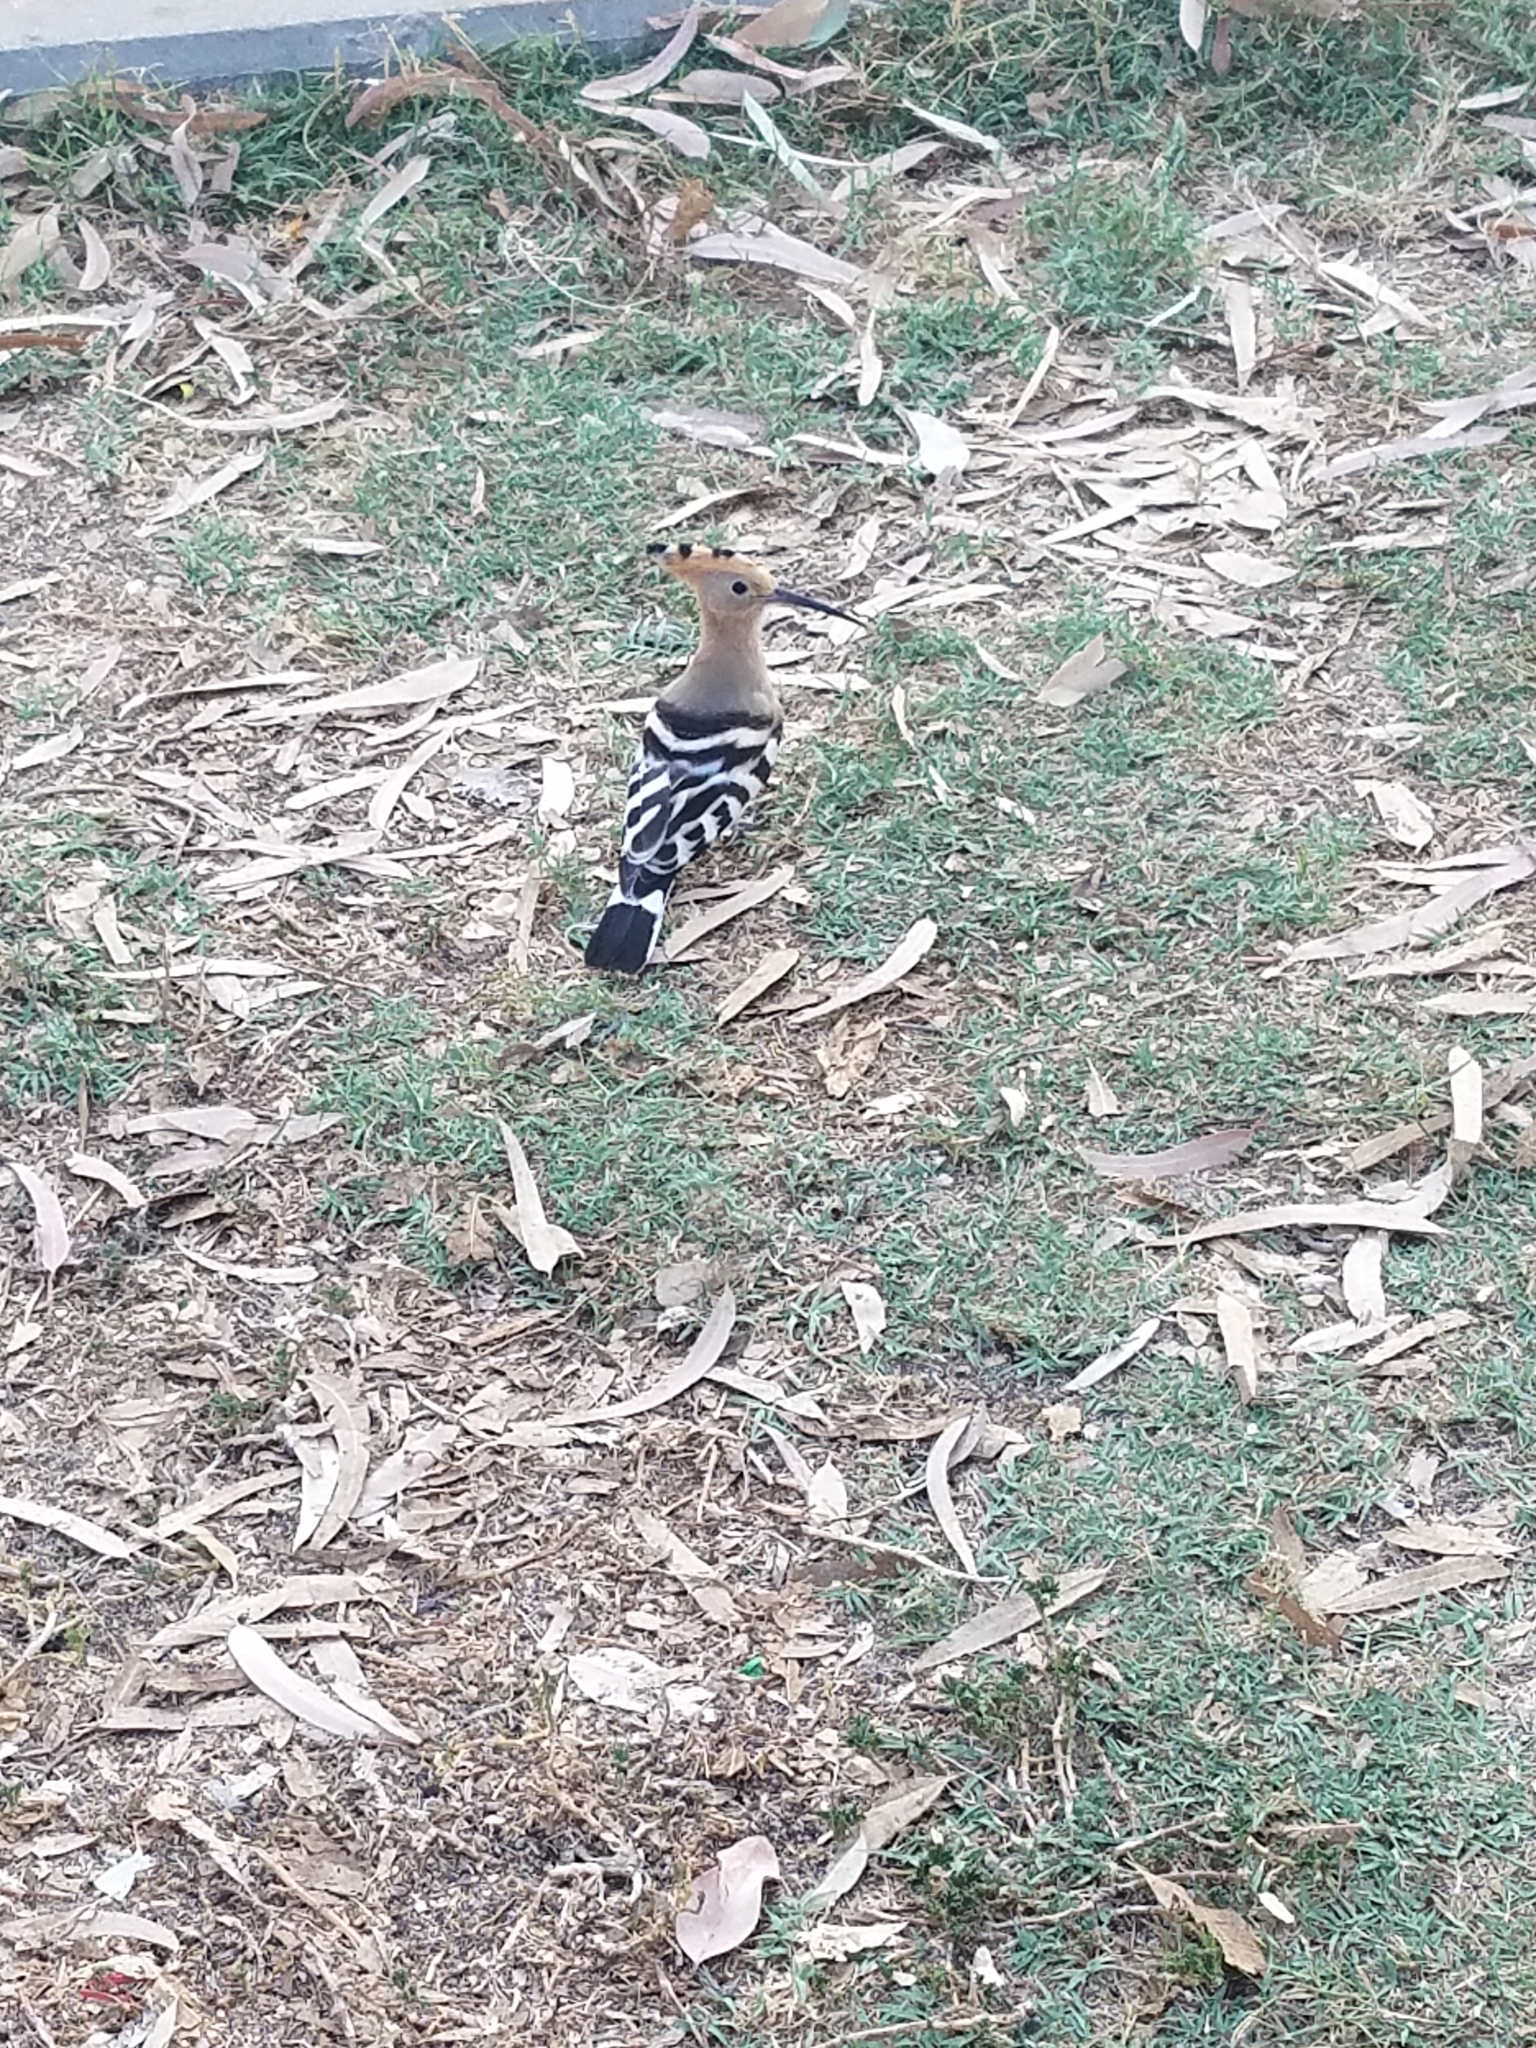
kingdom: Animalia
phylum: Chordata
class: Aves
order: Bucerotiformes
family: Upupidae
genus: Upupa
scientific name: Upupa epops
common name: Eurasian hoopoe
